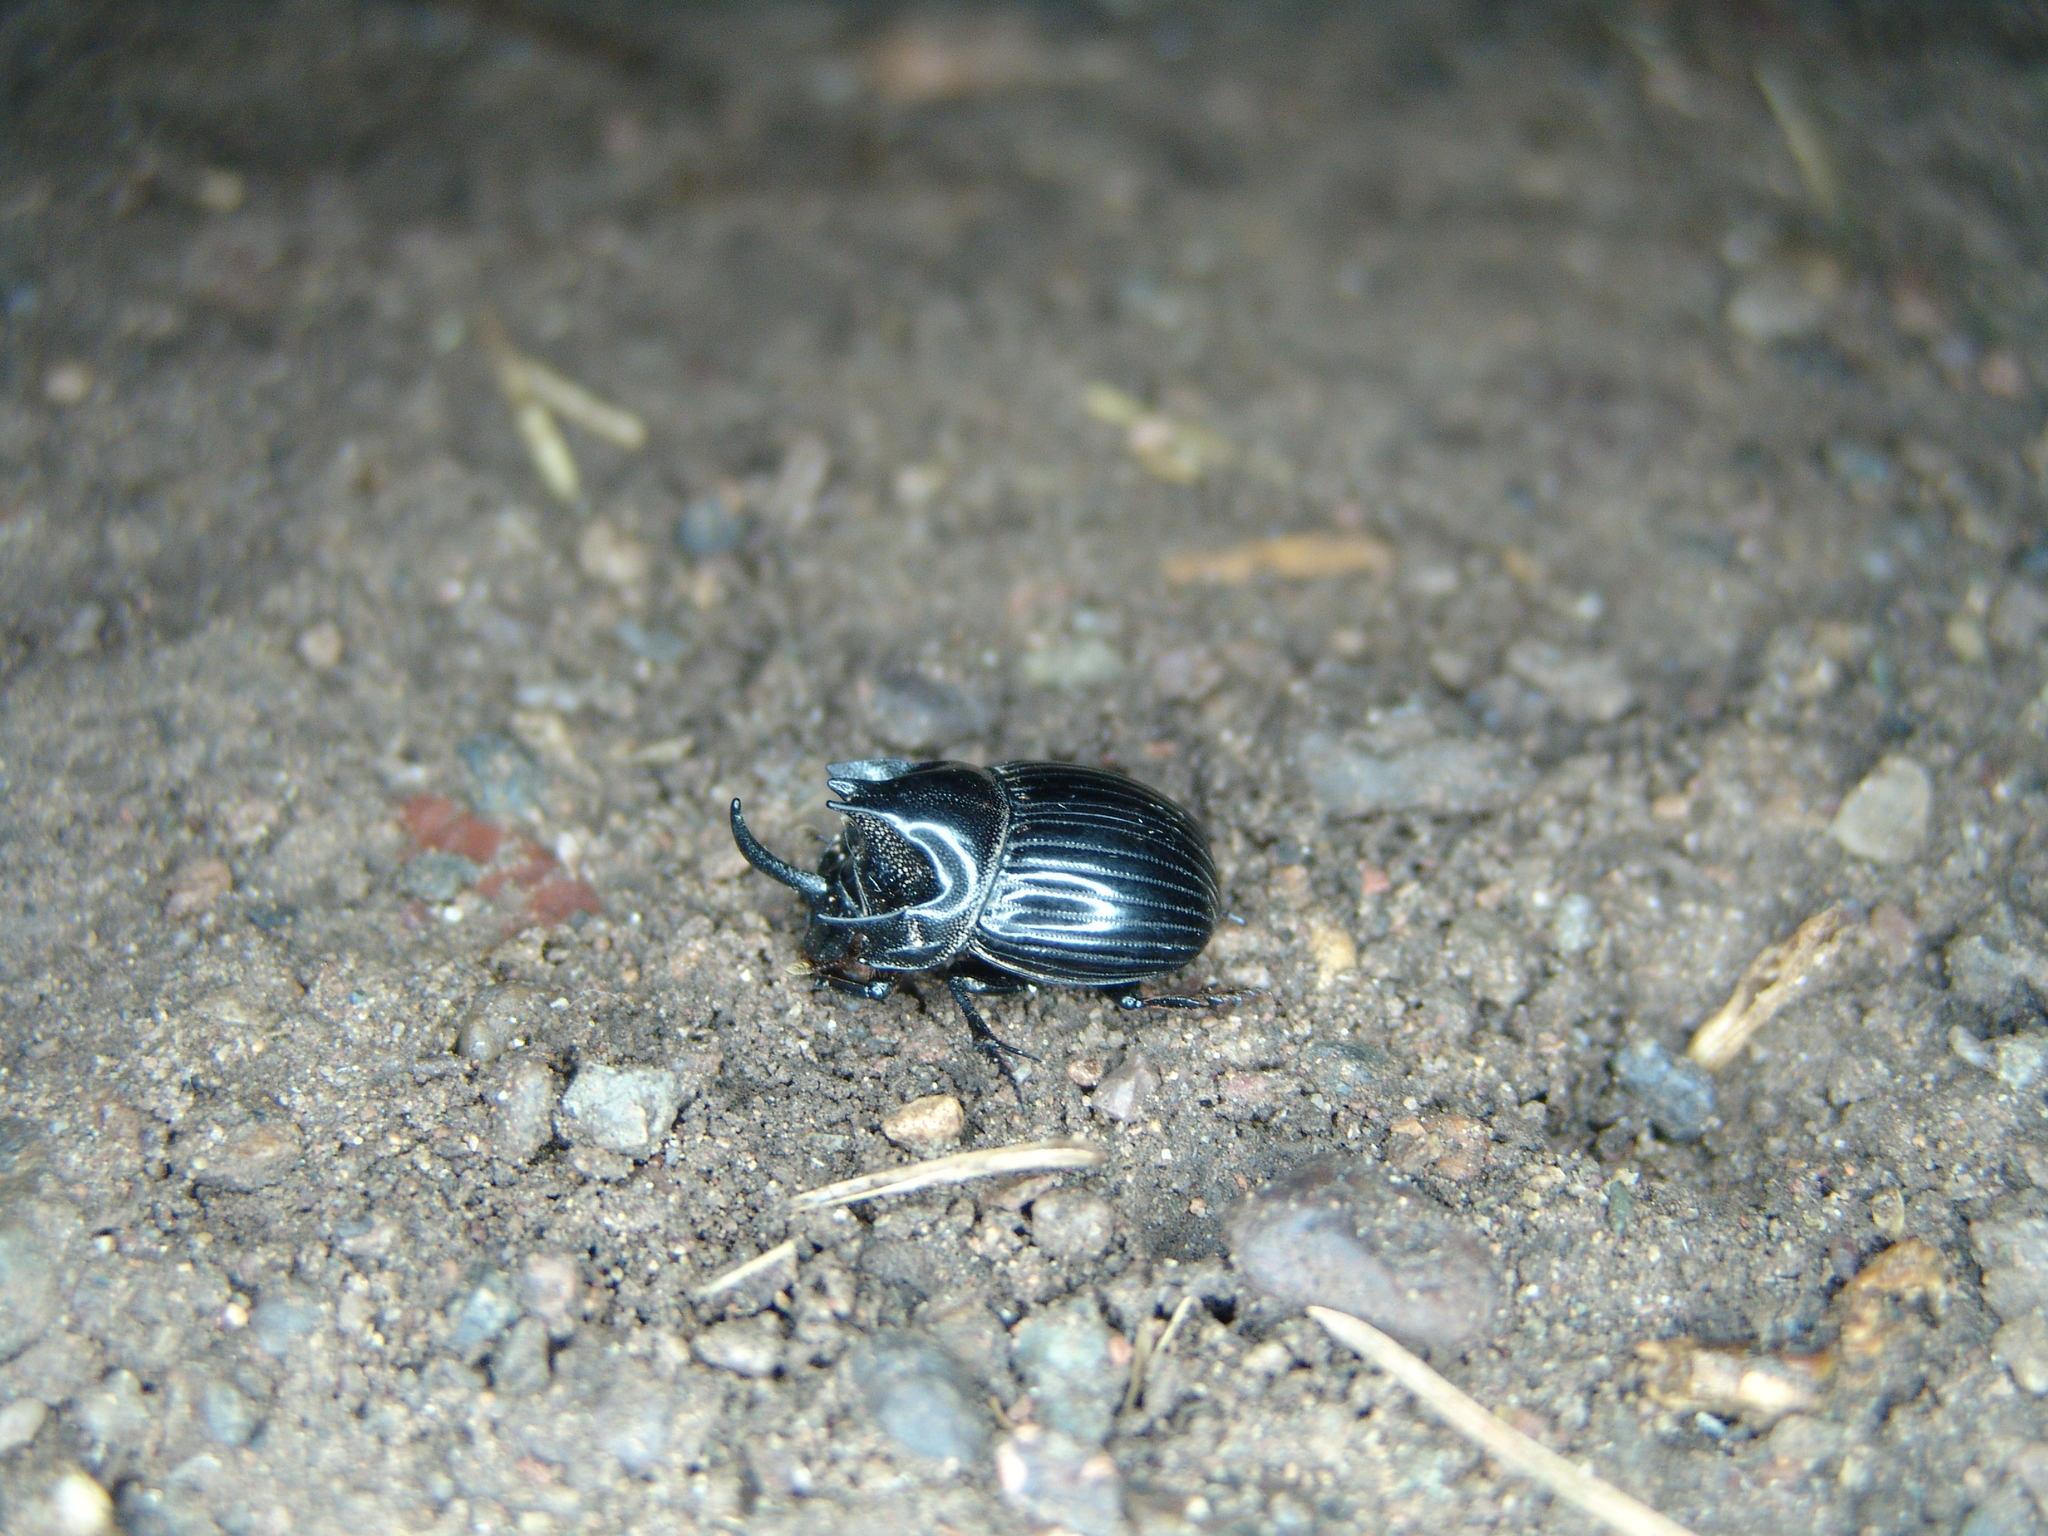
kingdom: Animalia
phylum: Arthropoda
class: Insecta
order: Coleoptera
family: Scarabaeidae
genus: Copris
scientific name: Copris arizonensis
